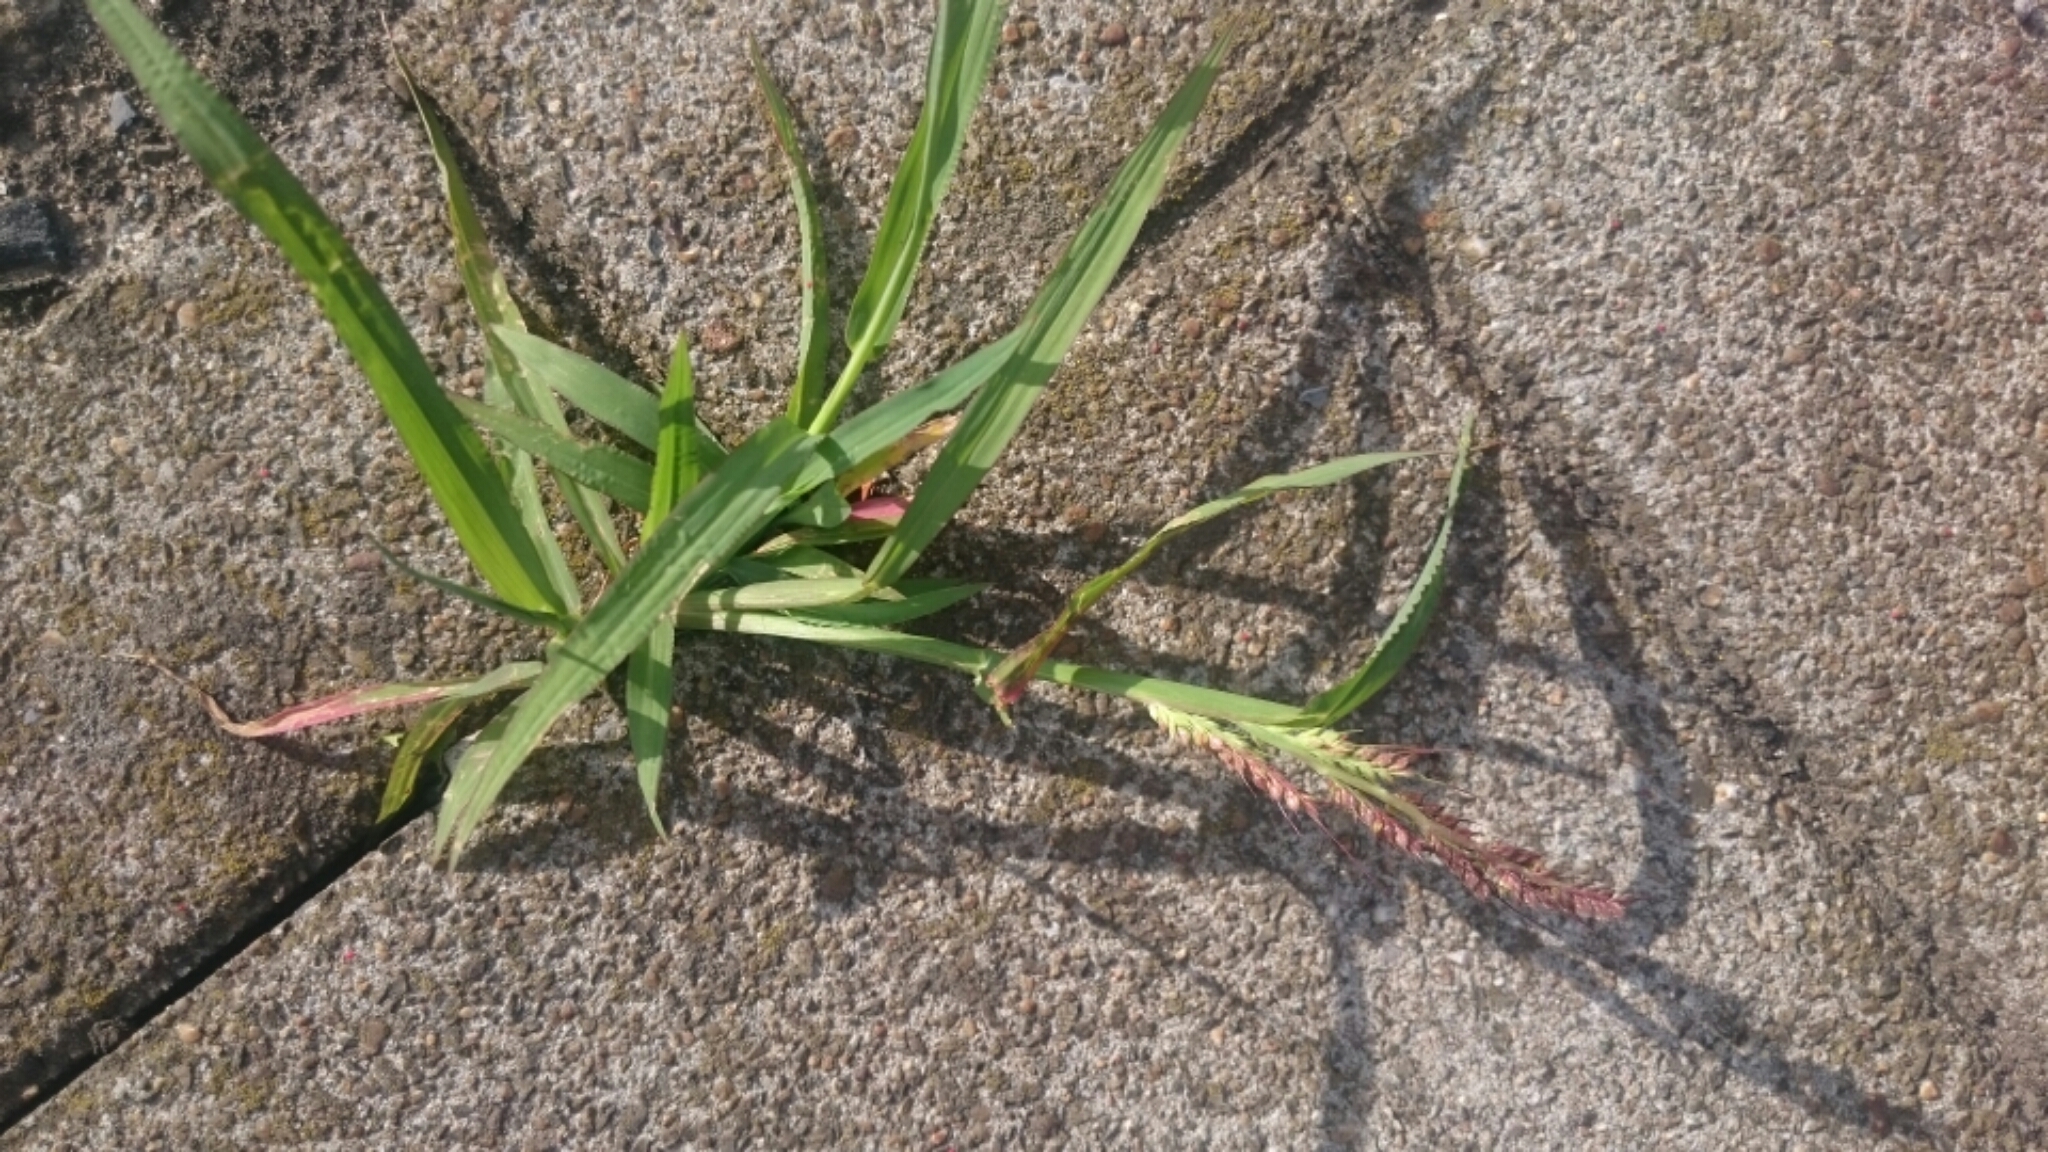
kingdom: Plantae
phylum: Tracheophyta
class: Liliopsida
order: Poales
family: Poaceae
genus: Echinochloa
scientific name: Echinochloa crus-galli
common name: Cockspur
